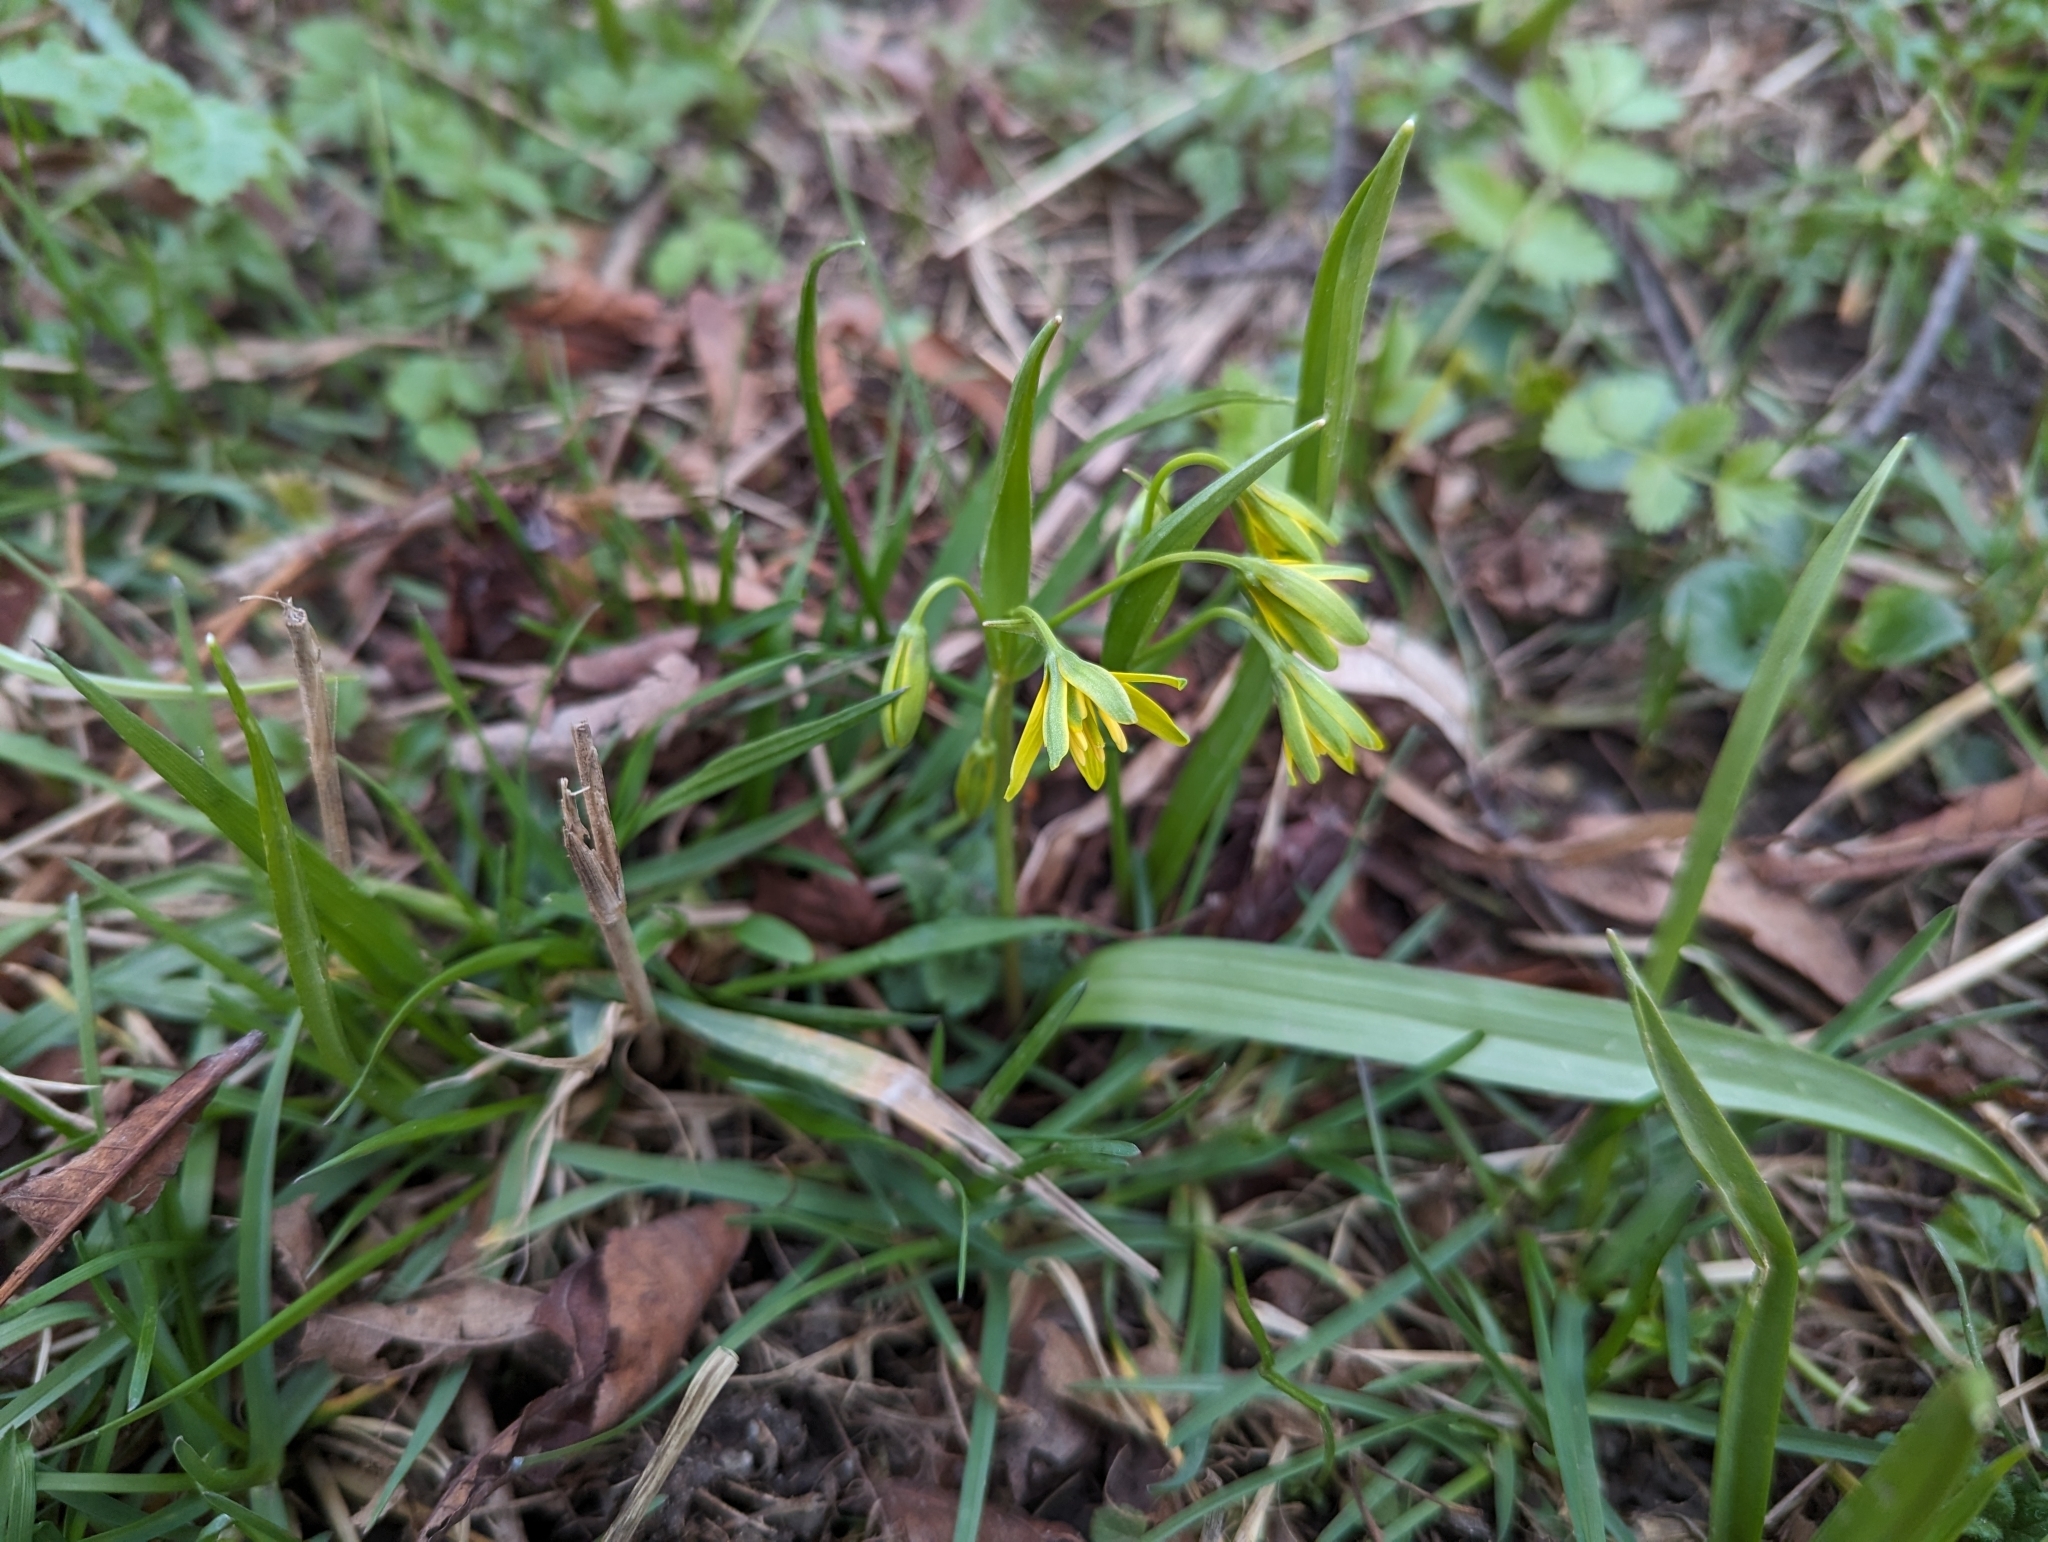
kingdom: Plantae
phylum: Tracheophyta
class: Liliopsida
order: Liliales
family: Liliaceae
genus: Gagea
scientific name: Gagea lutea
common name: Yellow star-of-bethlehem
